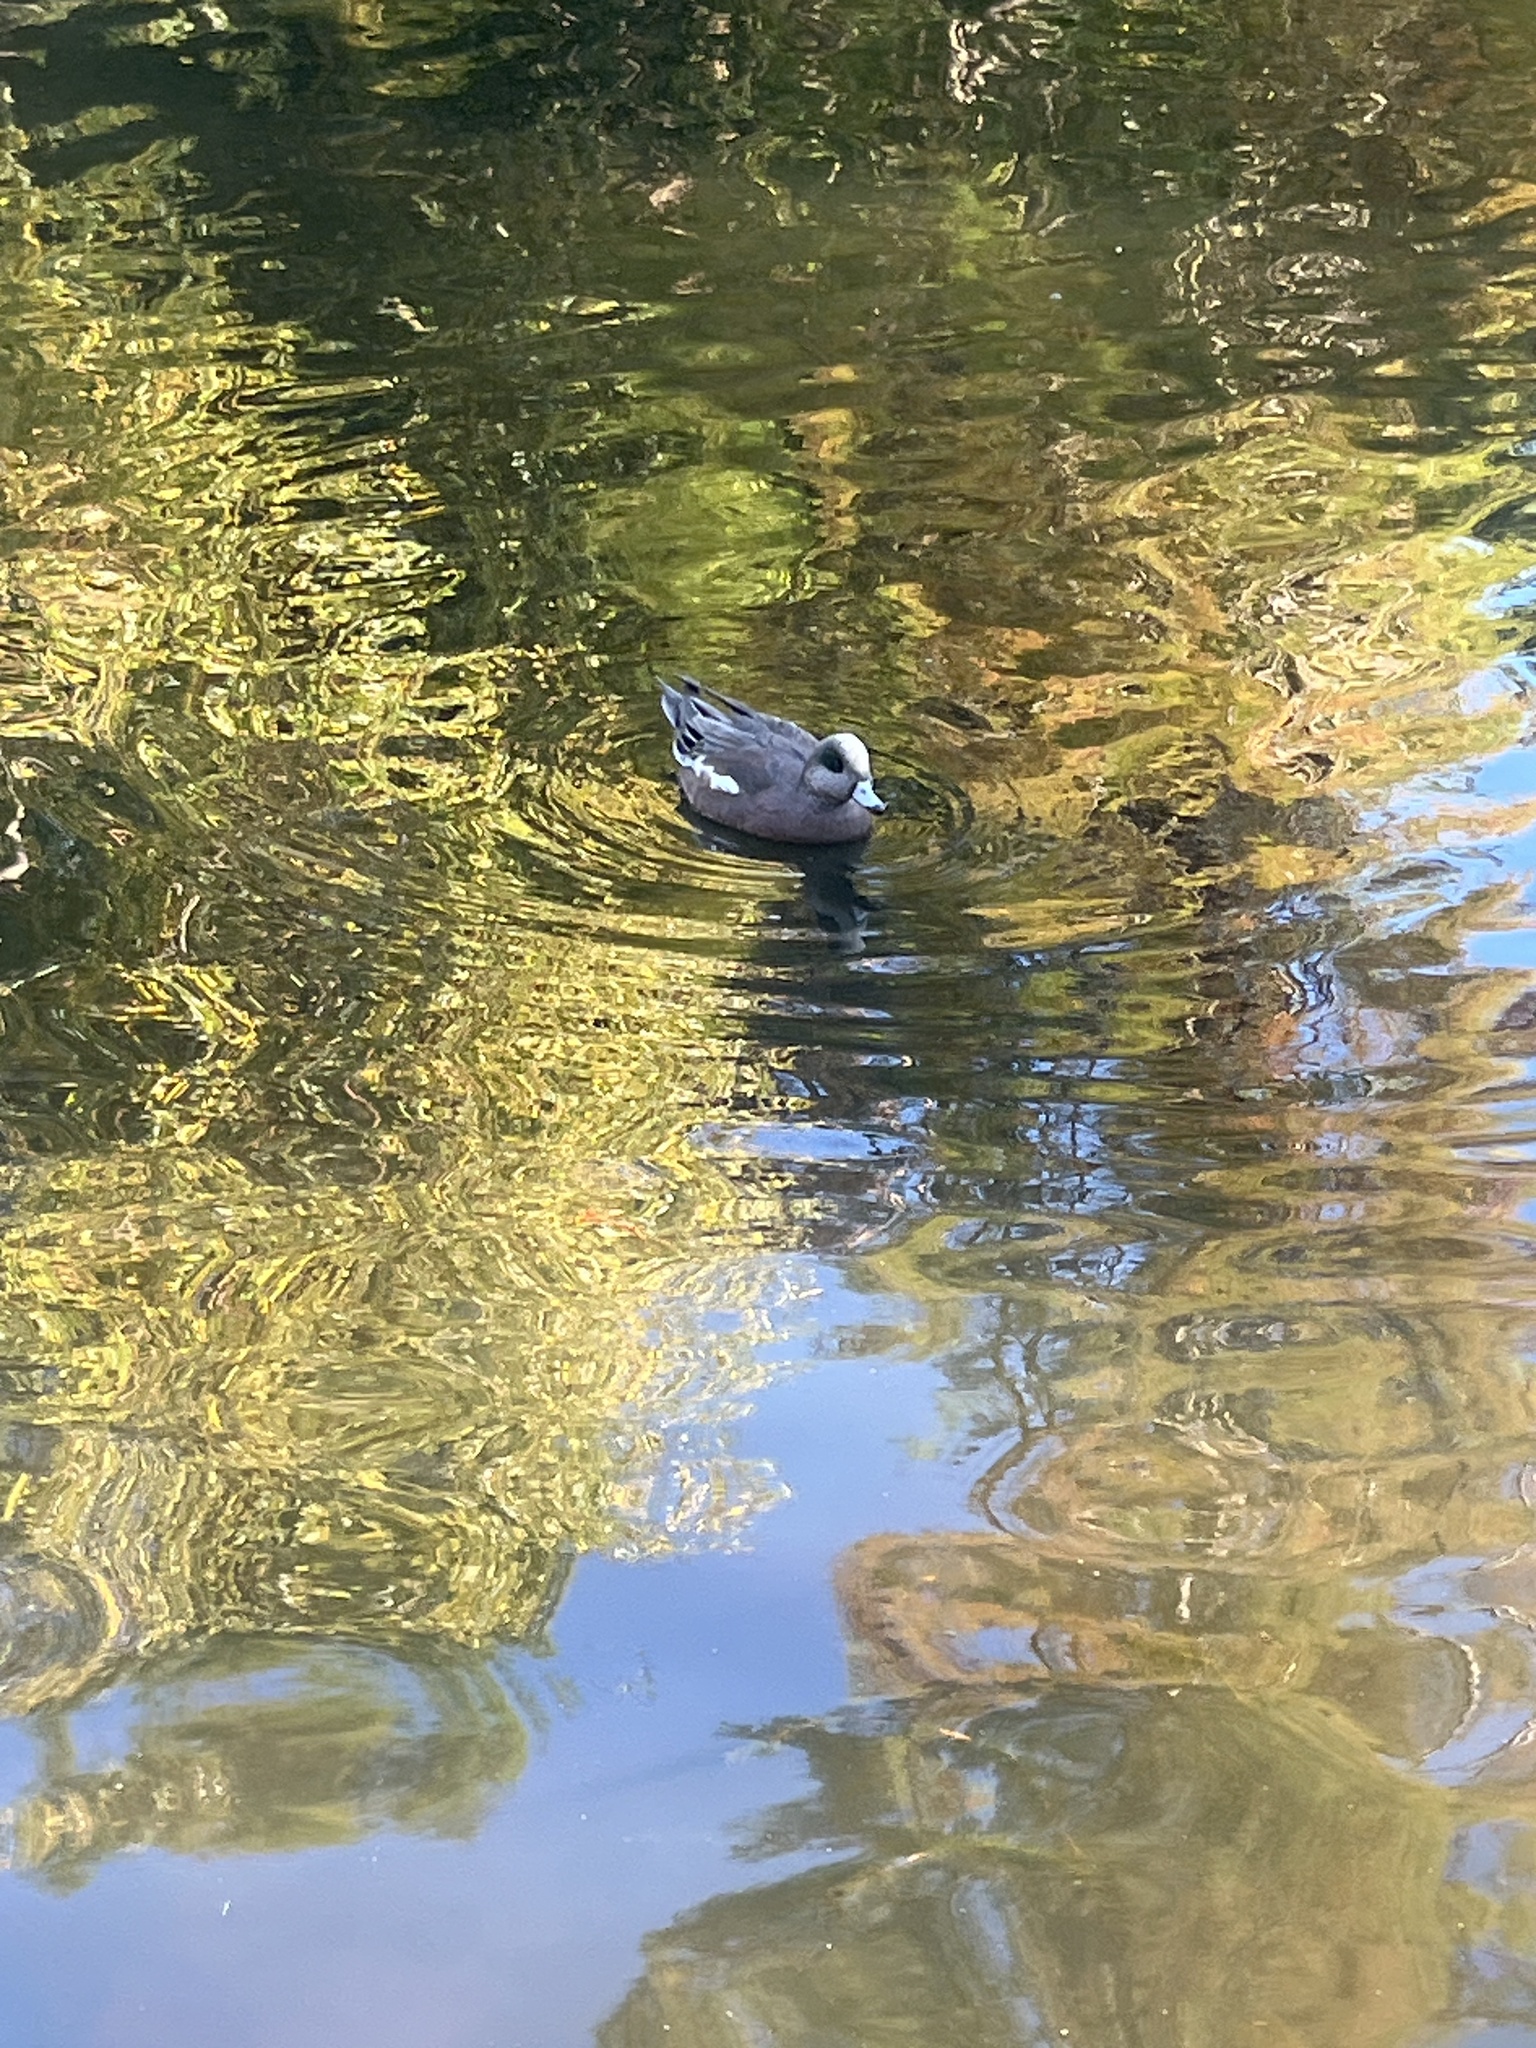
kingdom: Animalia
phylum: Chordata
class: Aves
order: Anseriformes
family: Anatidae
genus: Mareca
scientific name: Mareca americana
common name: American wigeon
